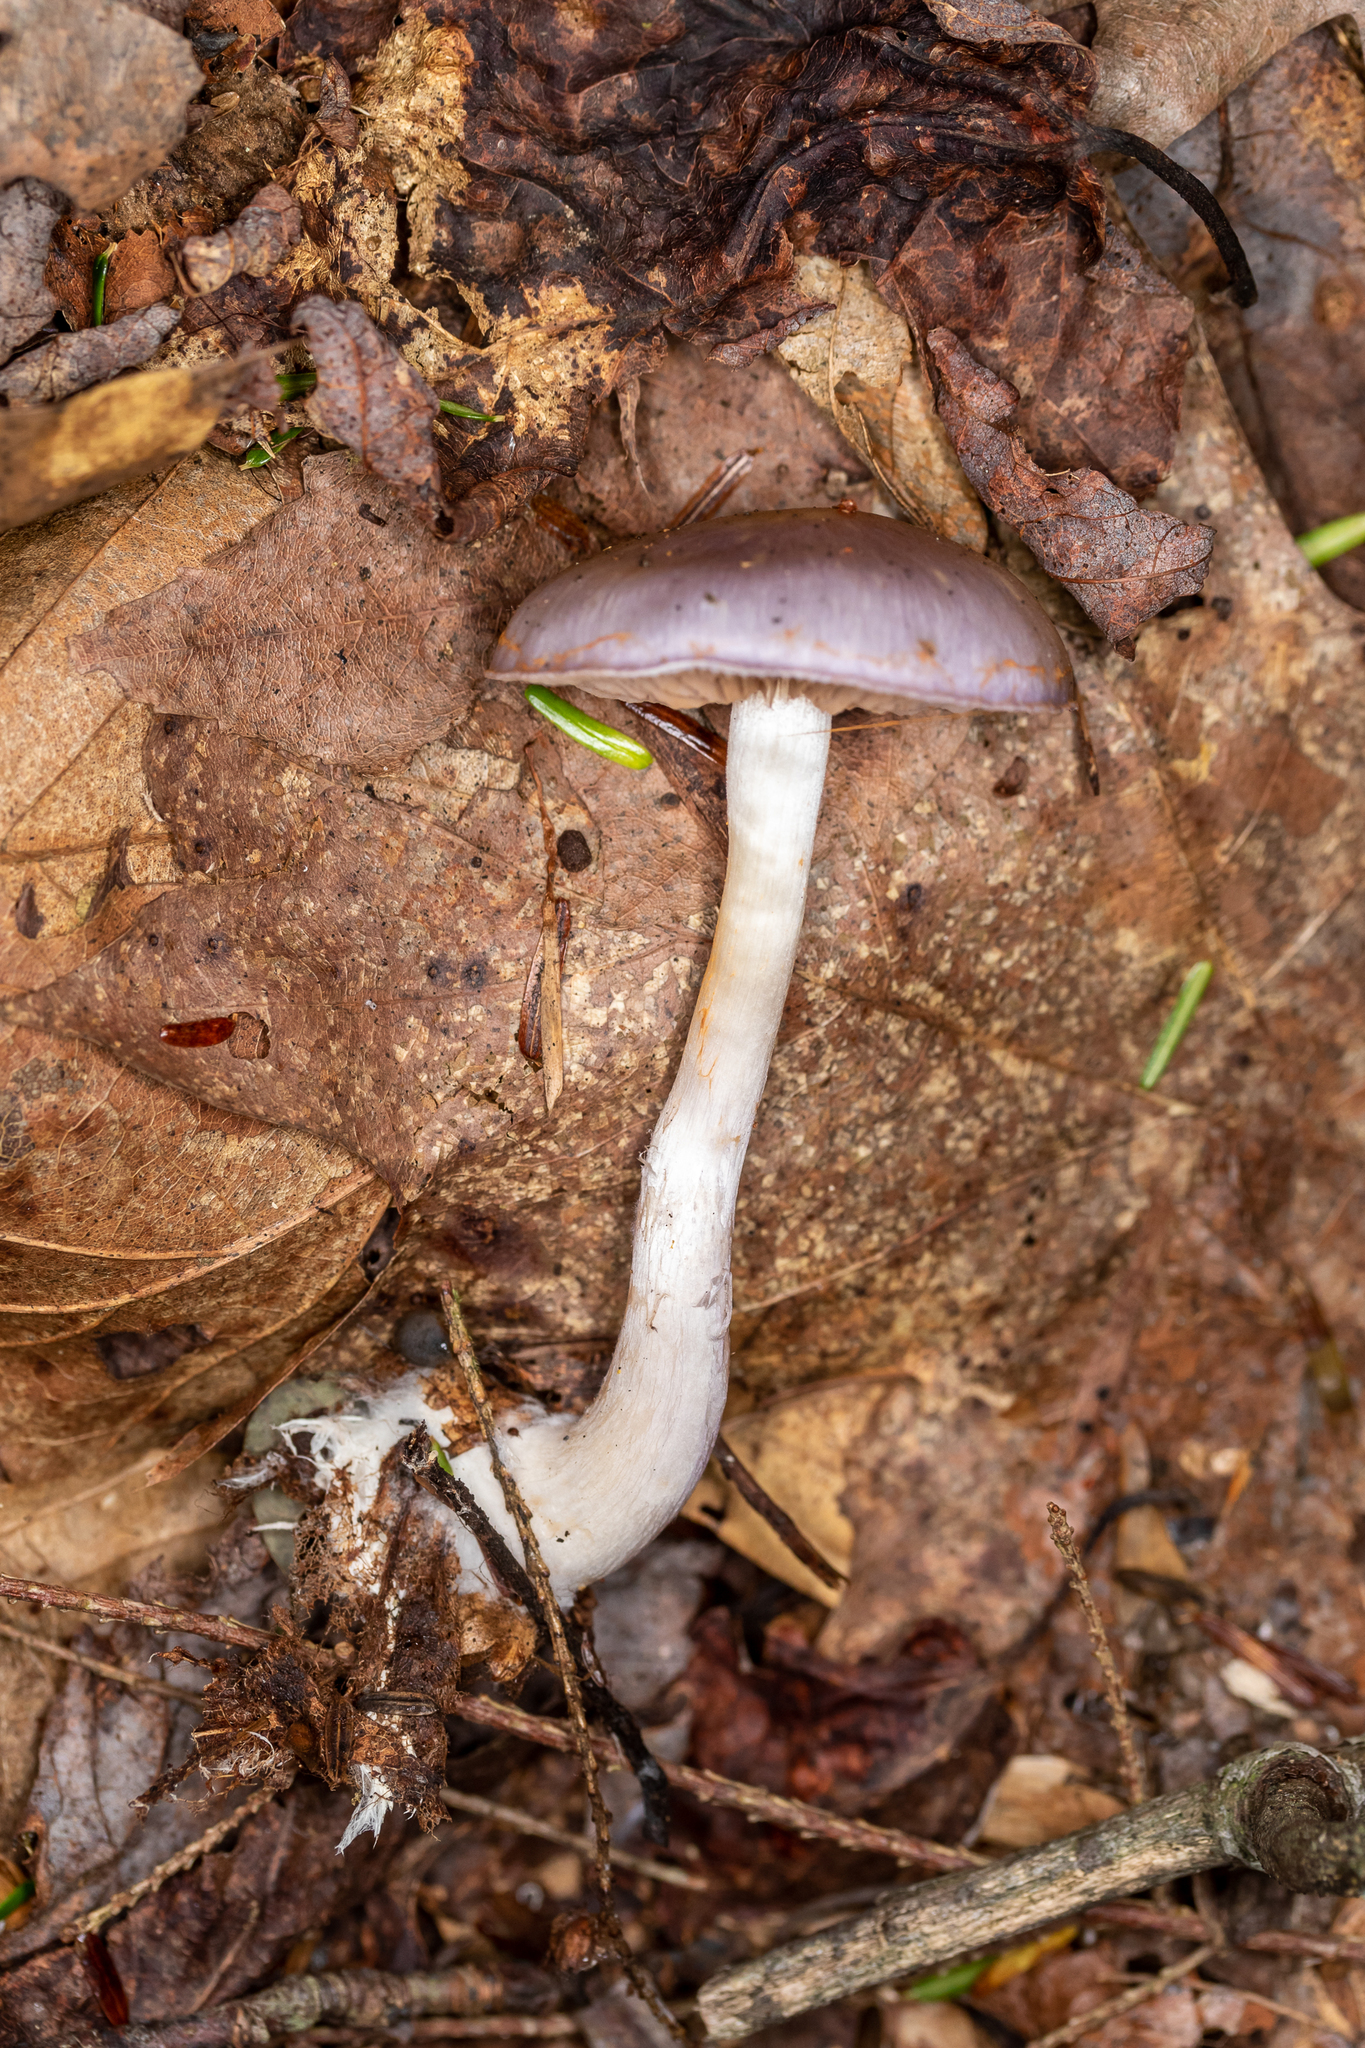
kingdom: Fungi
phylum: Basidiomycota
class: Agaricomycetes
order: Agaricales
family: Cortinariaceae
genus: Cortinarius
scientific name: Cortinarius iodes
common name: Viscid violet cort
